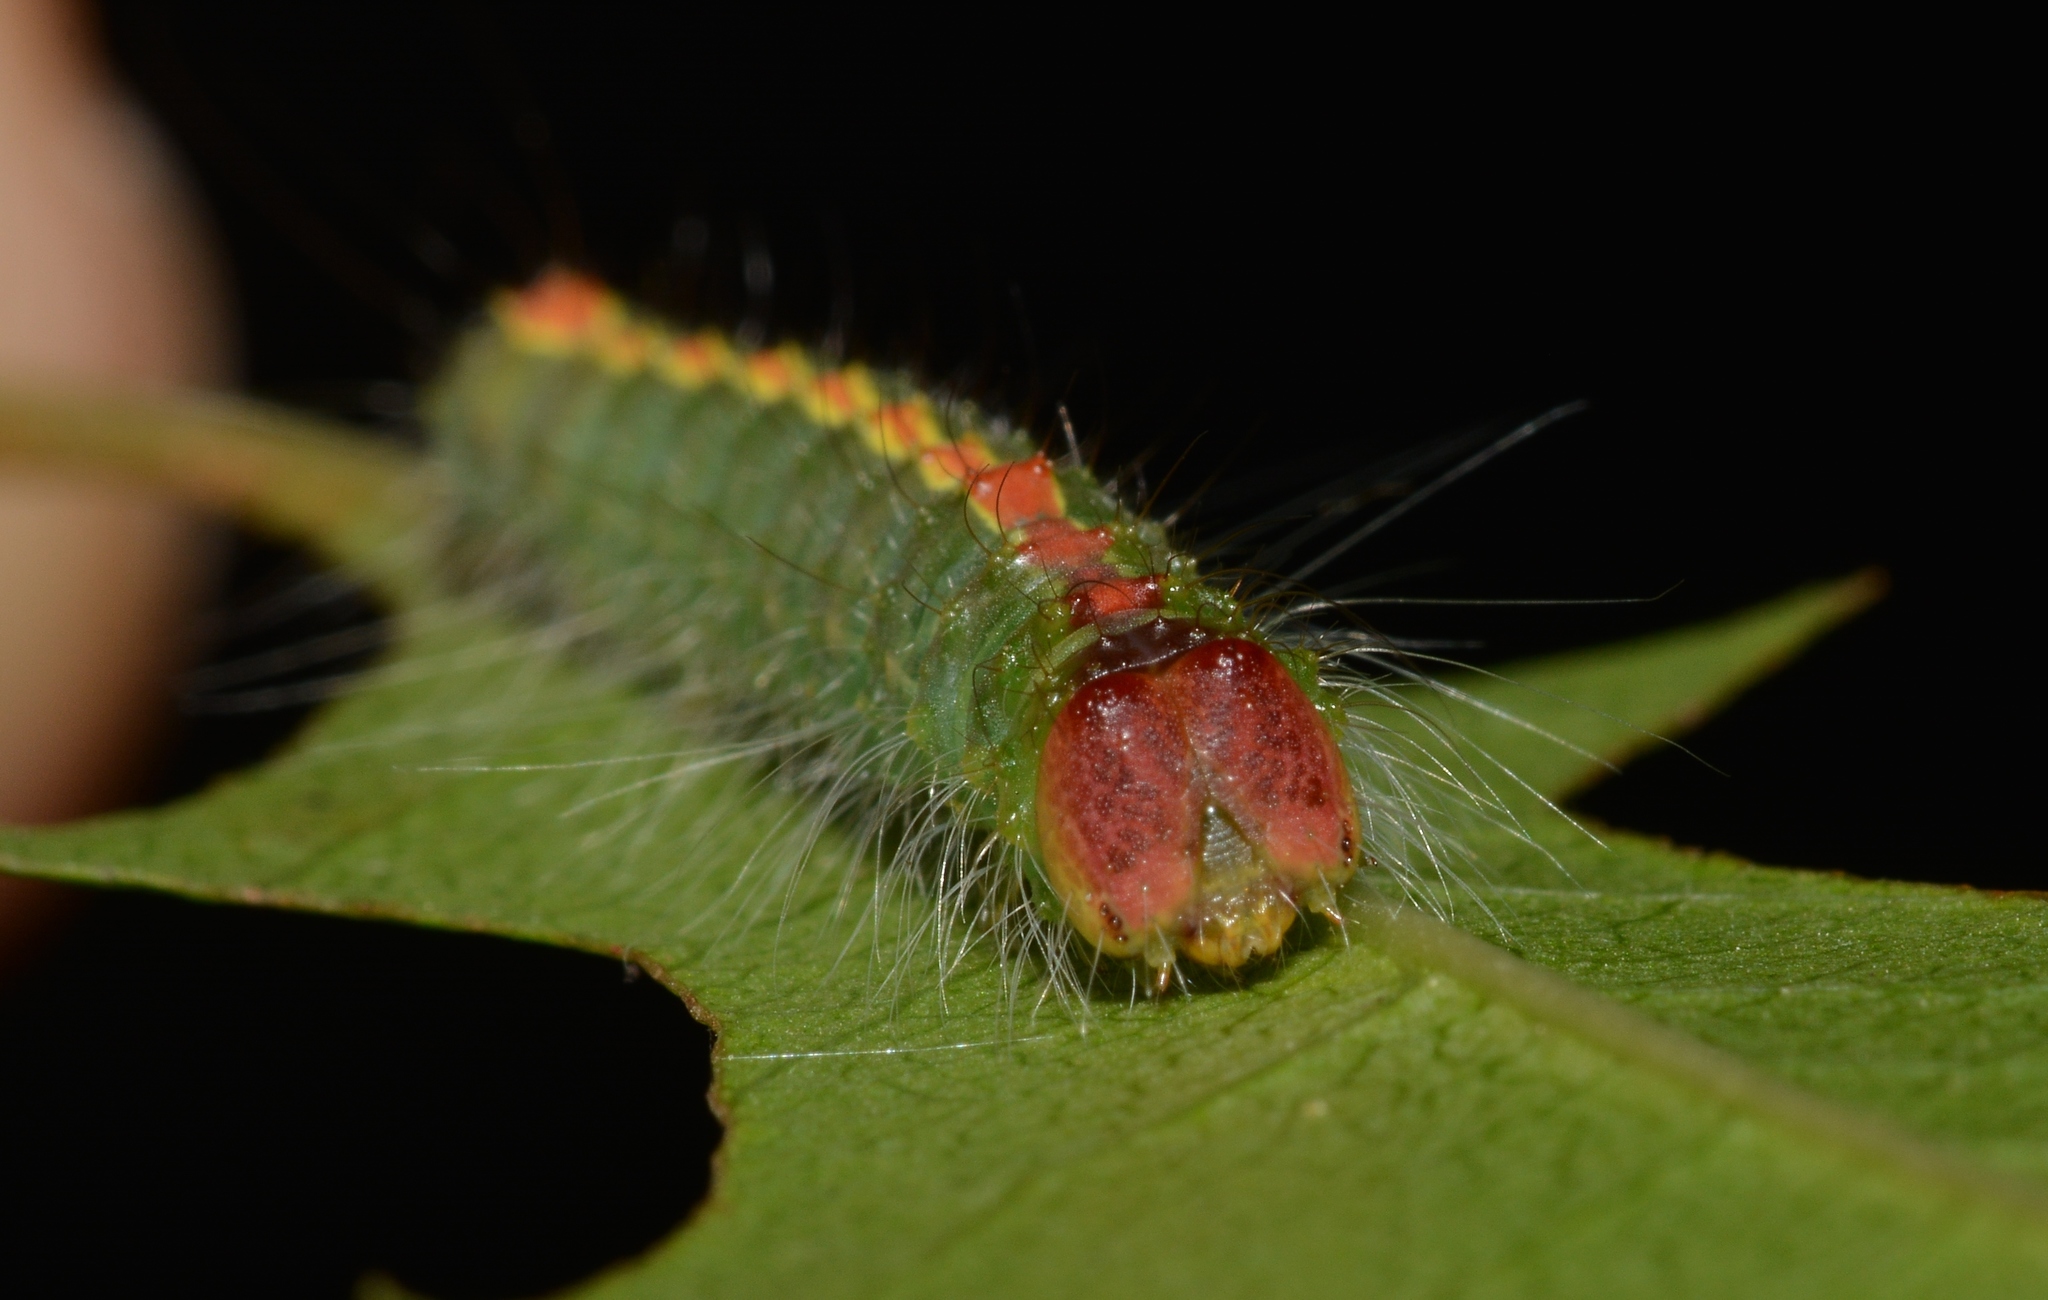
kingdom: Animalia
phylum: Arthropoda
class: Insecta
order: Lepidoptera
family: Noctuidae
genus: Acronicta
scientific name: Acronicta betulae
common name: Birch dagger moth
